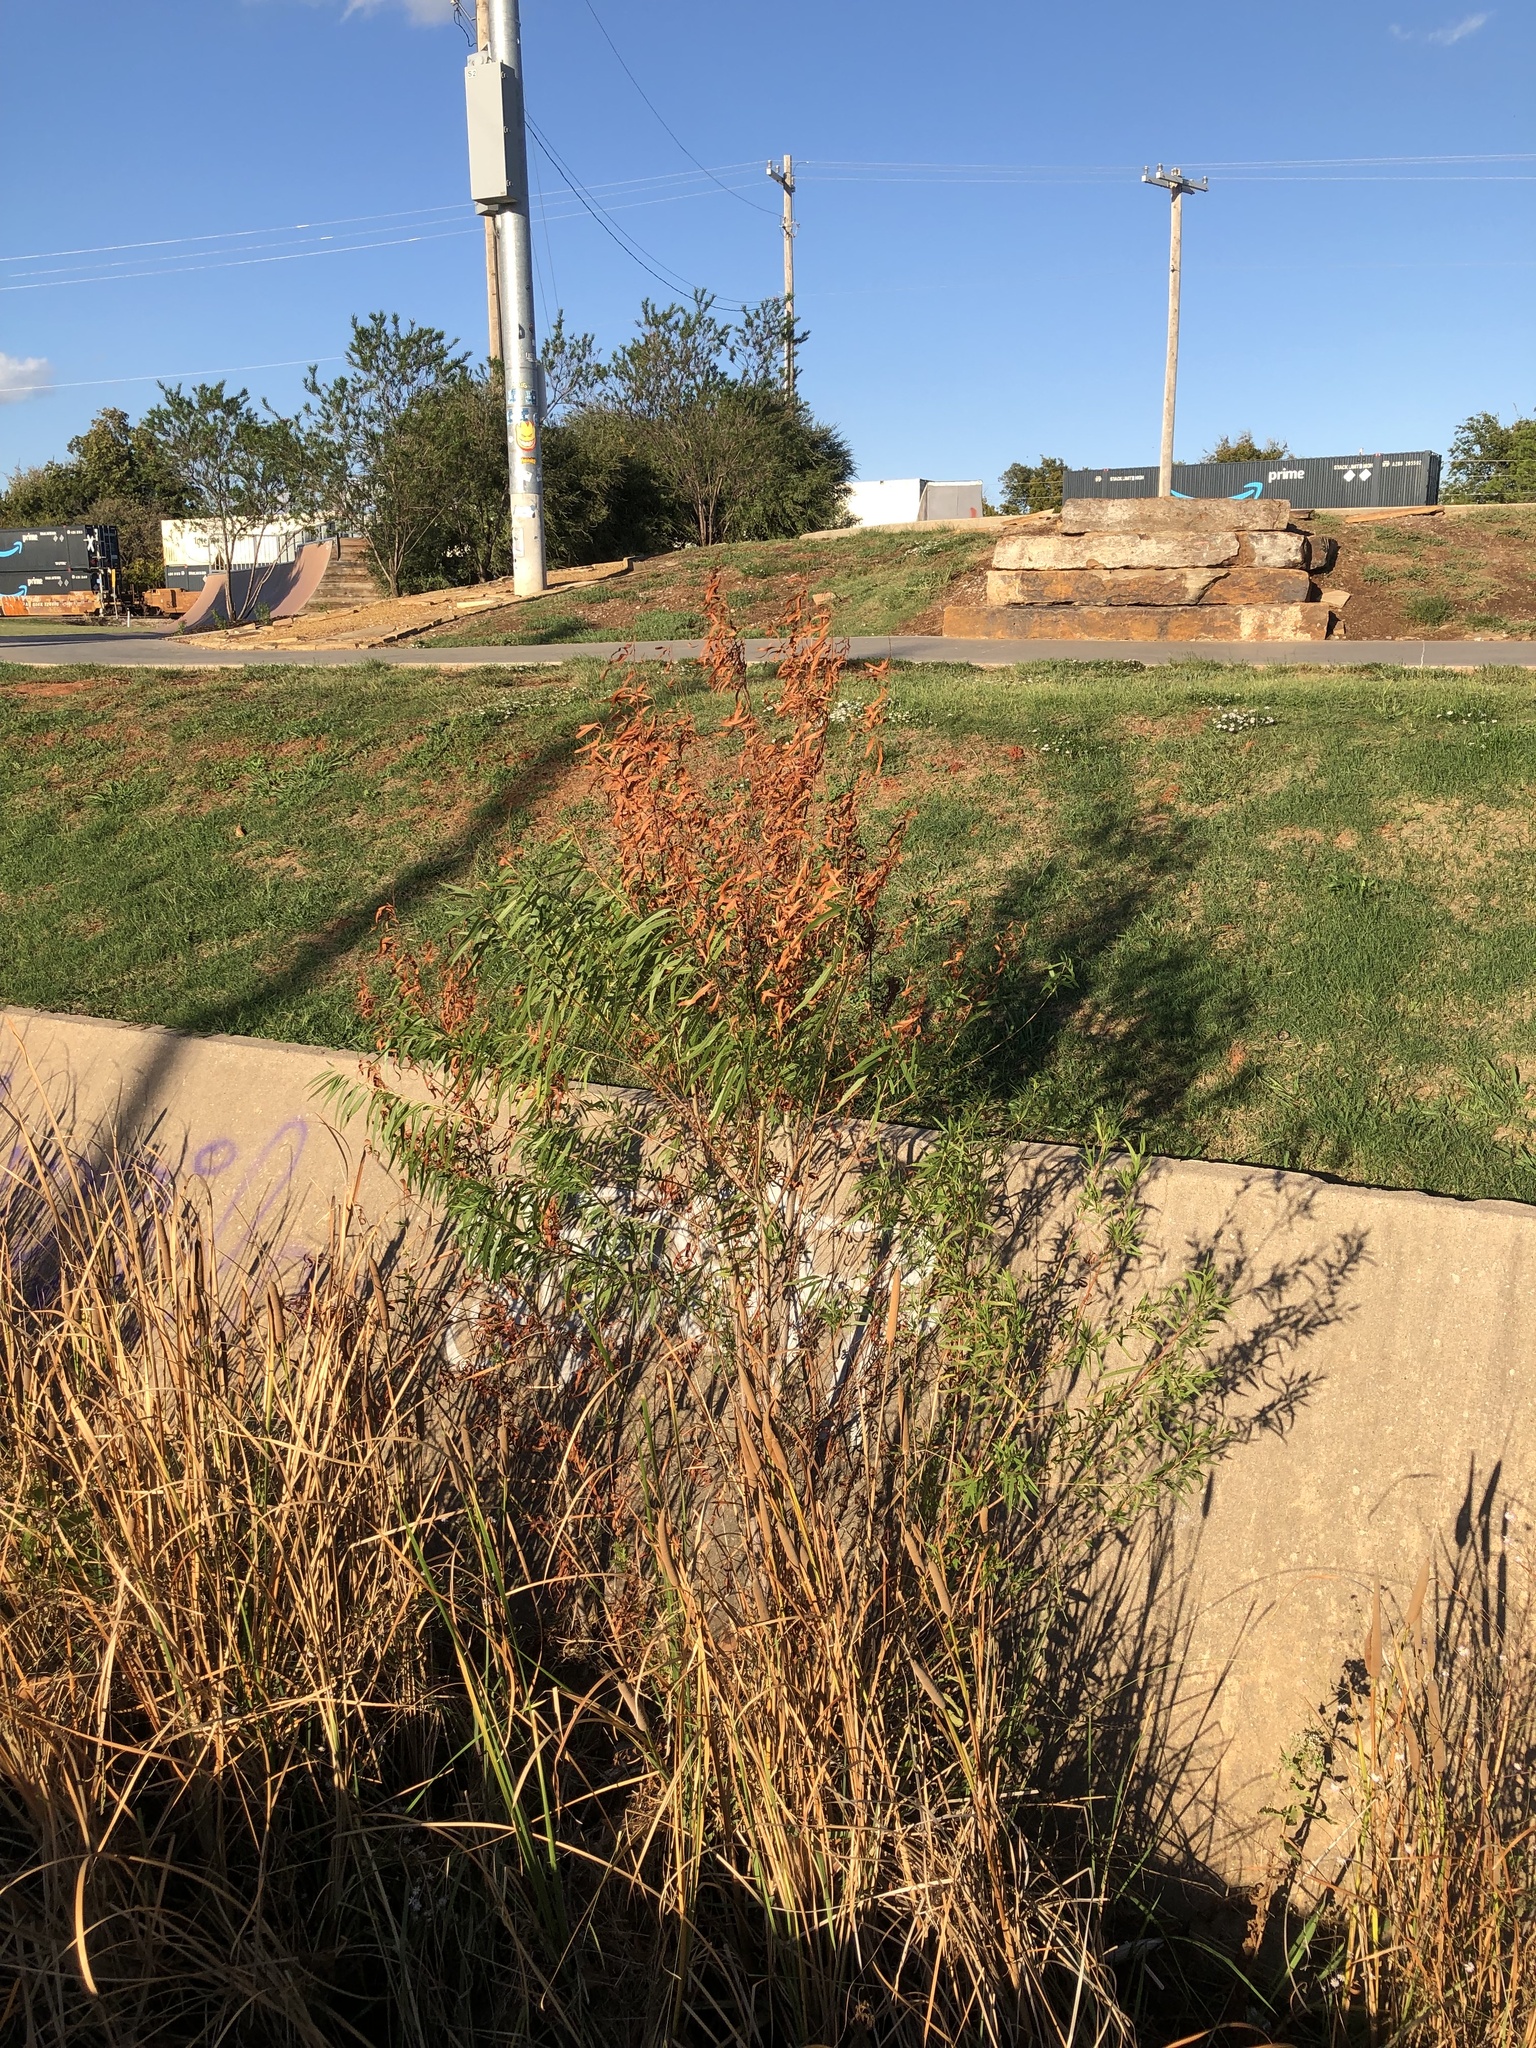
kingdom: Plantae
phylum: Tracheophyta
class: Magnoliopsida
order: Malpighiales
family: Salicaceae
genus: Salix
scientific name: Salix nigra
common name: Black willow
